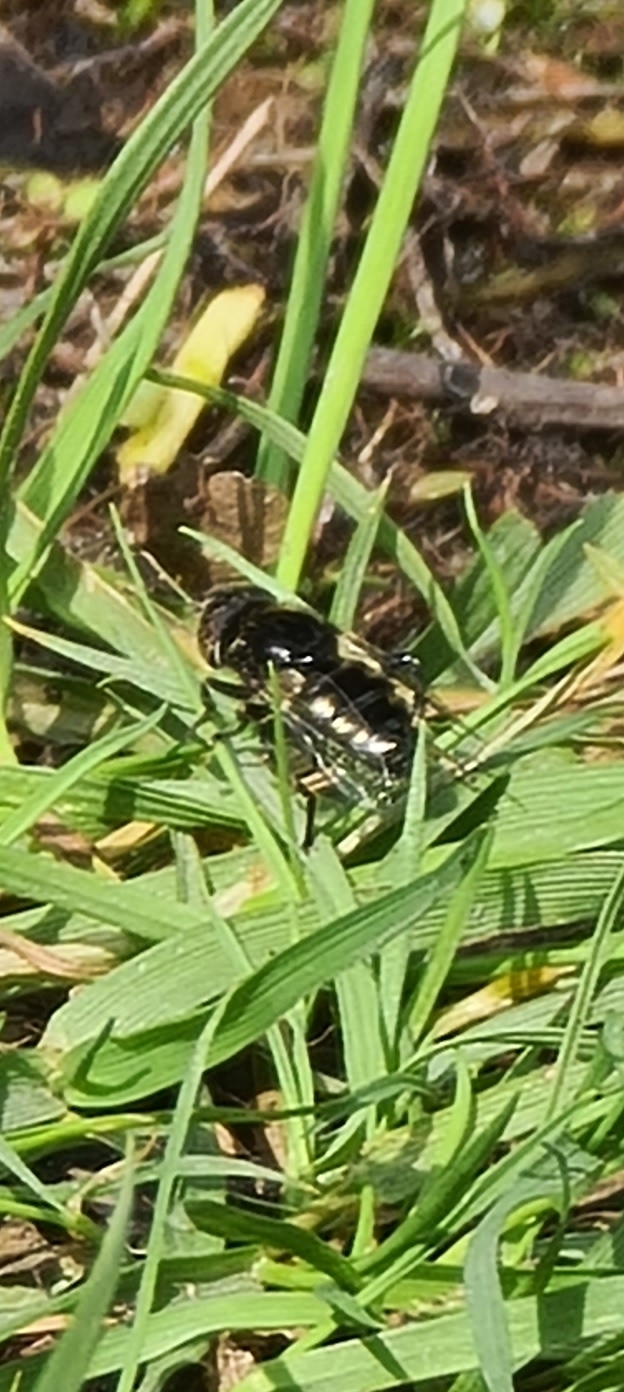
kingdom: Animalia
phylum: Arthropoda
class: Insecta
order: Diptera
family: Syrphidae
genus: Eristalinus
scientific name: Eristalinus aeneus
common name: Syrphid fly
